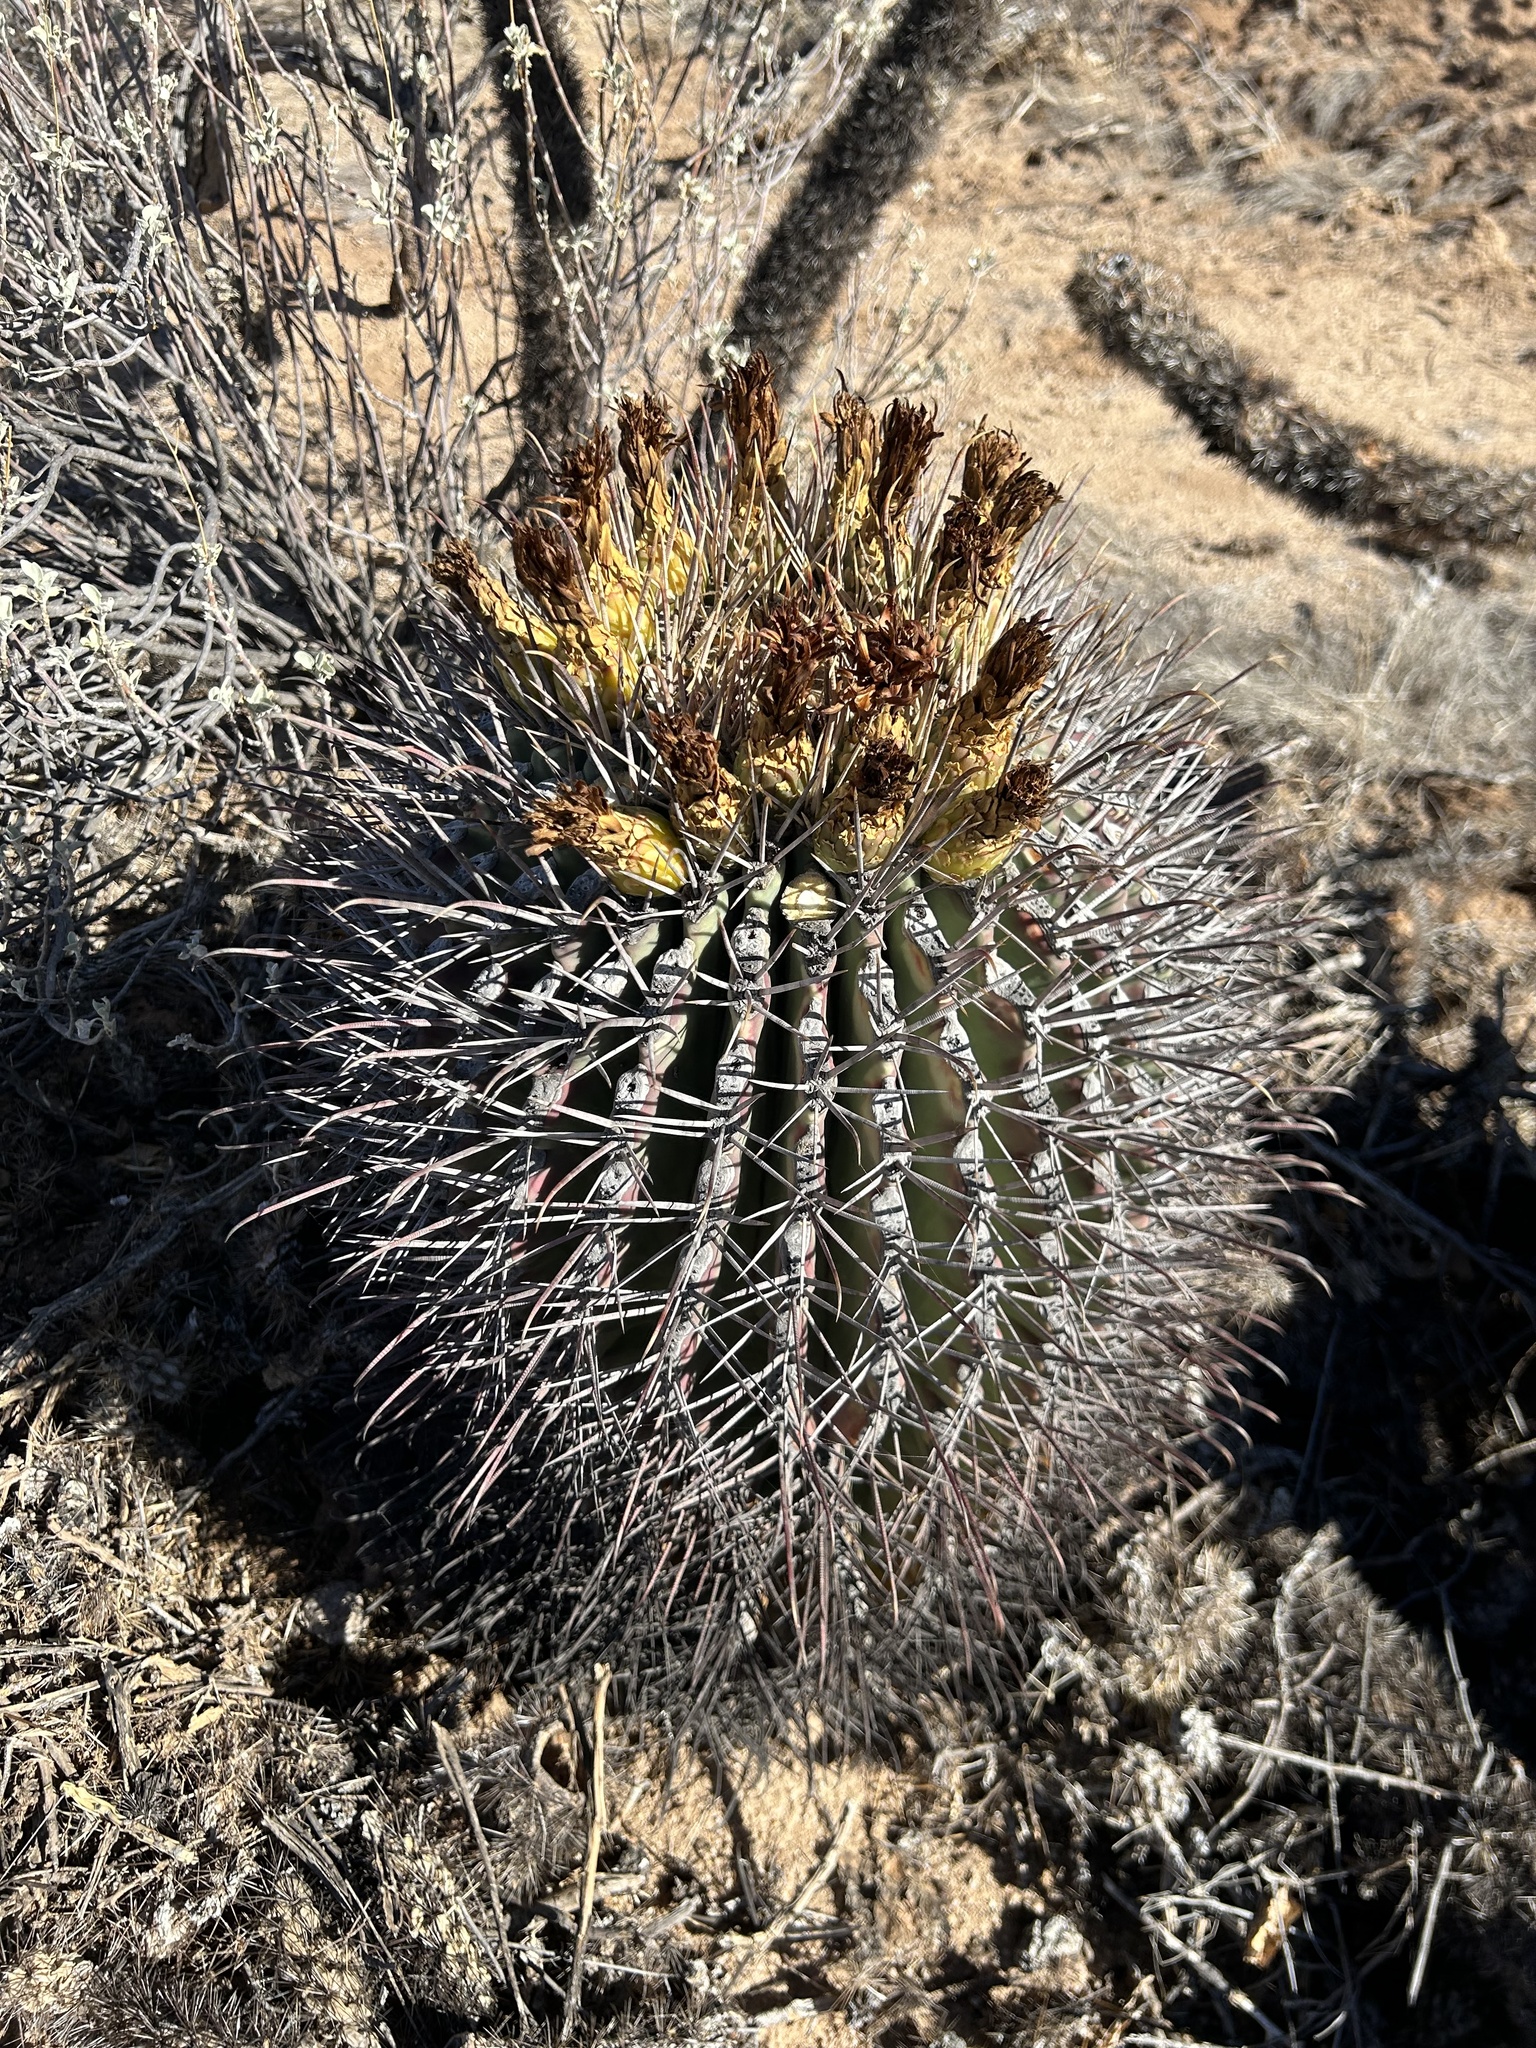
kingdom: Plantae
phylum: Tracheophyta
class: Magnoliopsida
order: Caryophyllales
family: Cactaceae
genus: Ferocactus
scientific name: Ferocactus emoryi
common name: Emory's barrel cactus
